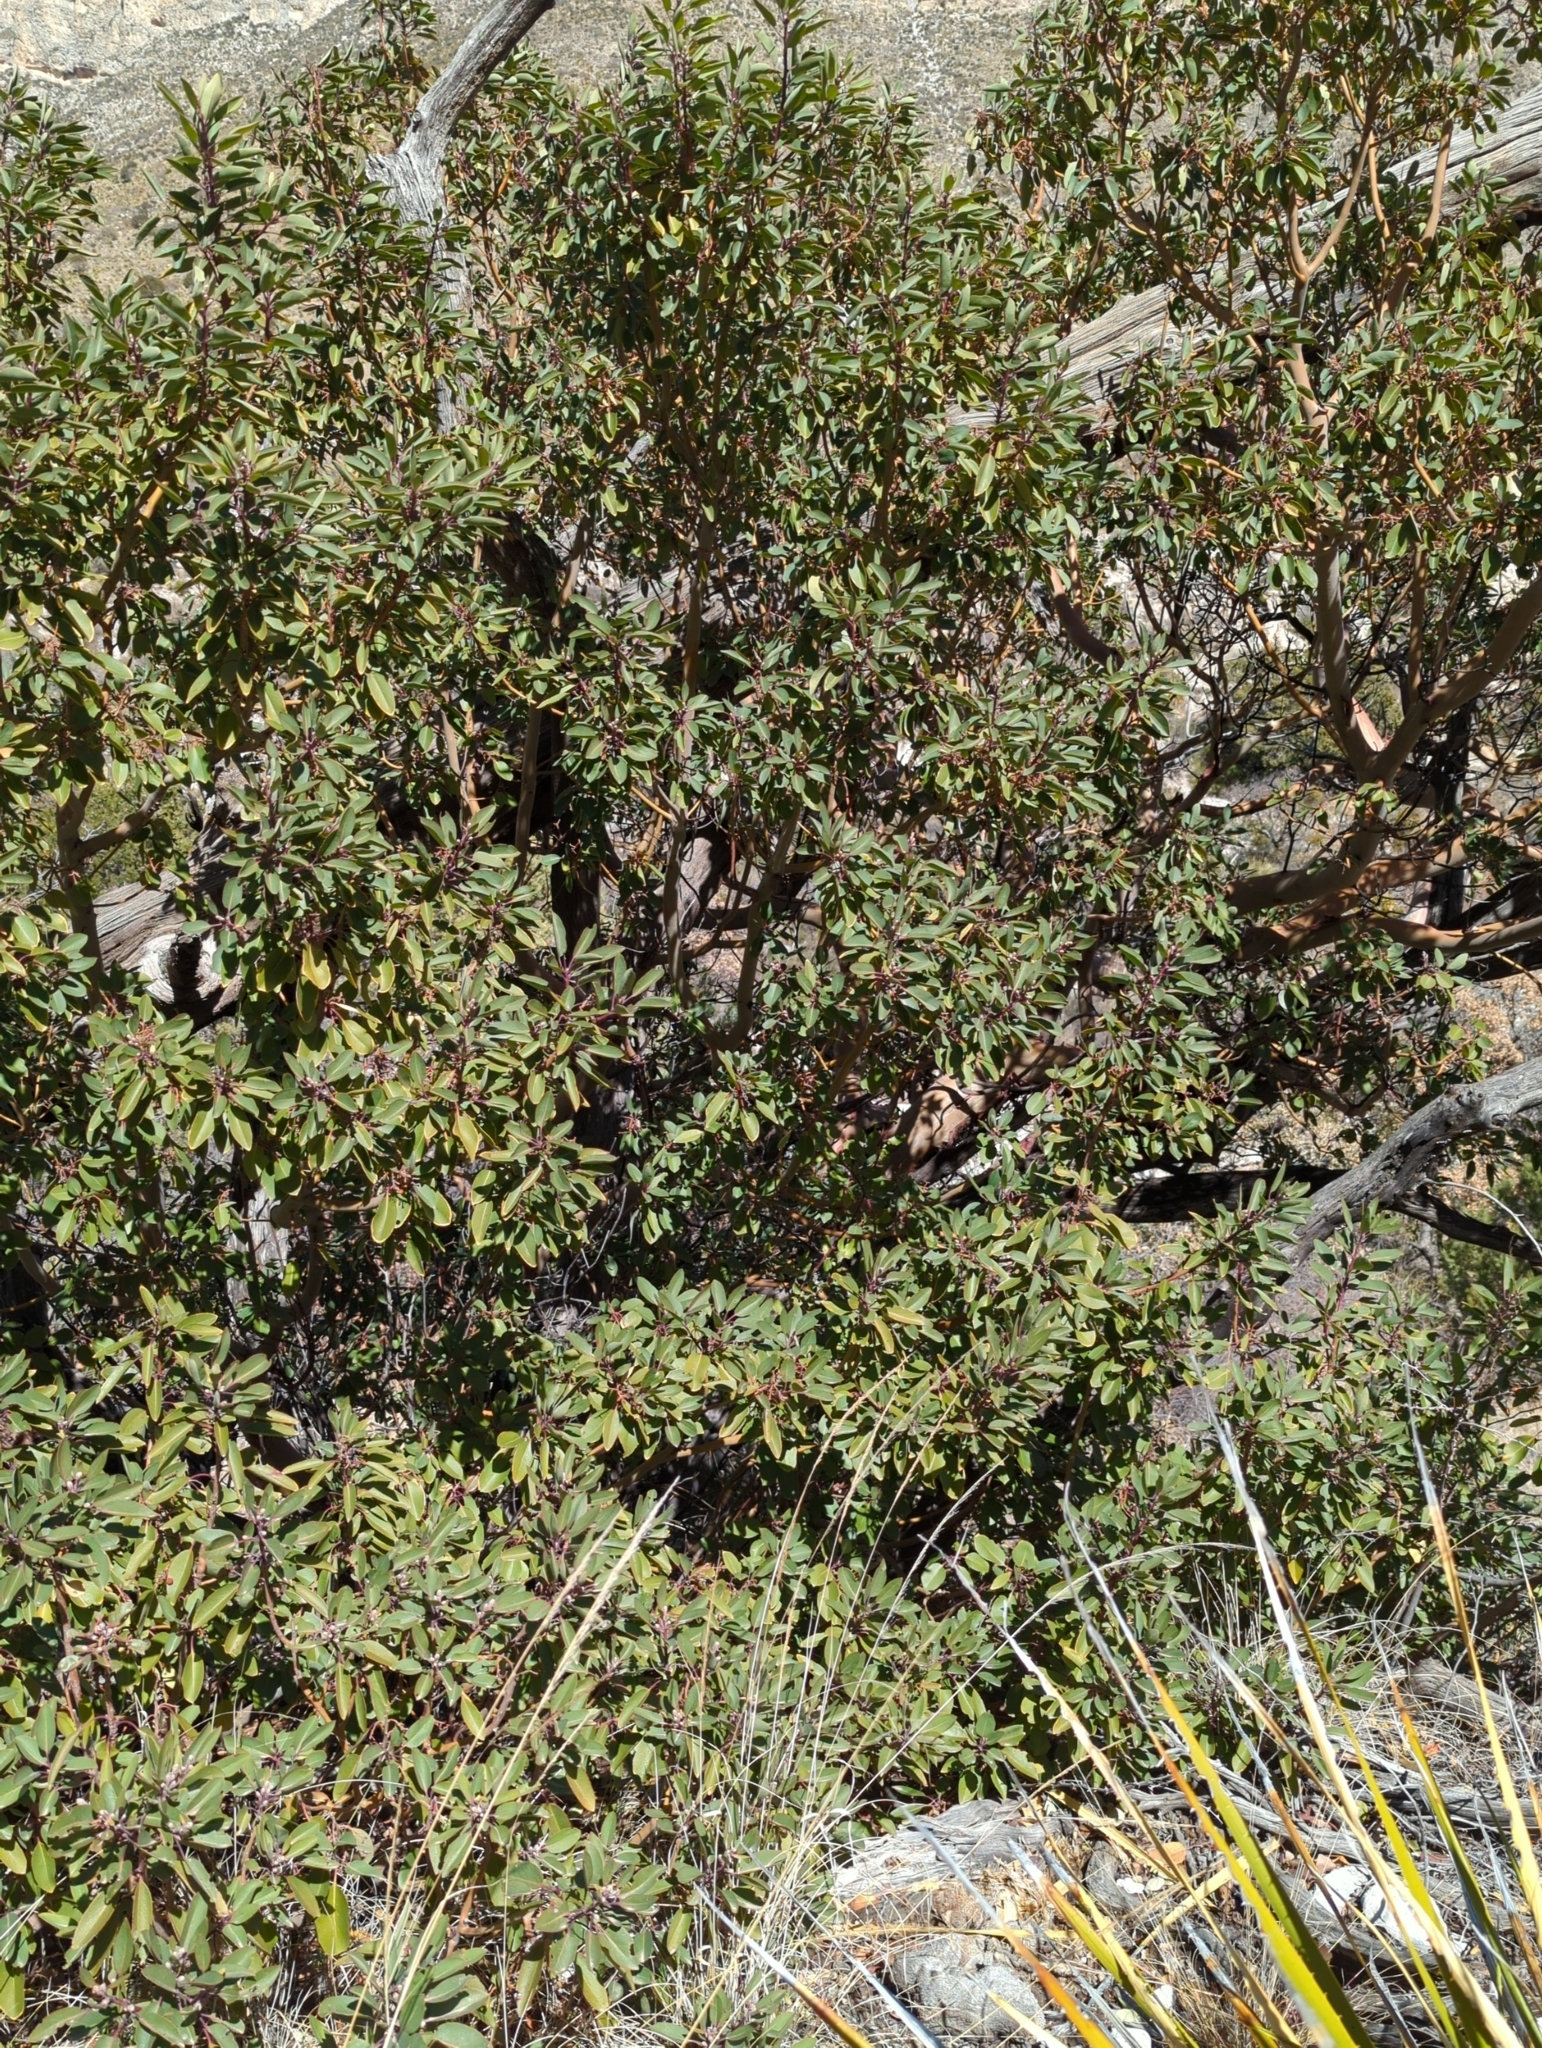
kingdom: Plantae
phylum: Tracheophyta
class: Magnoliopsida
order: Ericales
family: Ericaceae
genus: Arbutus
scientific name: Arbutus xalapensis
